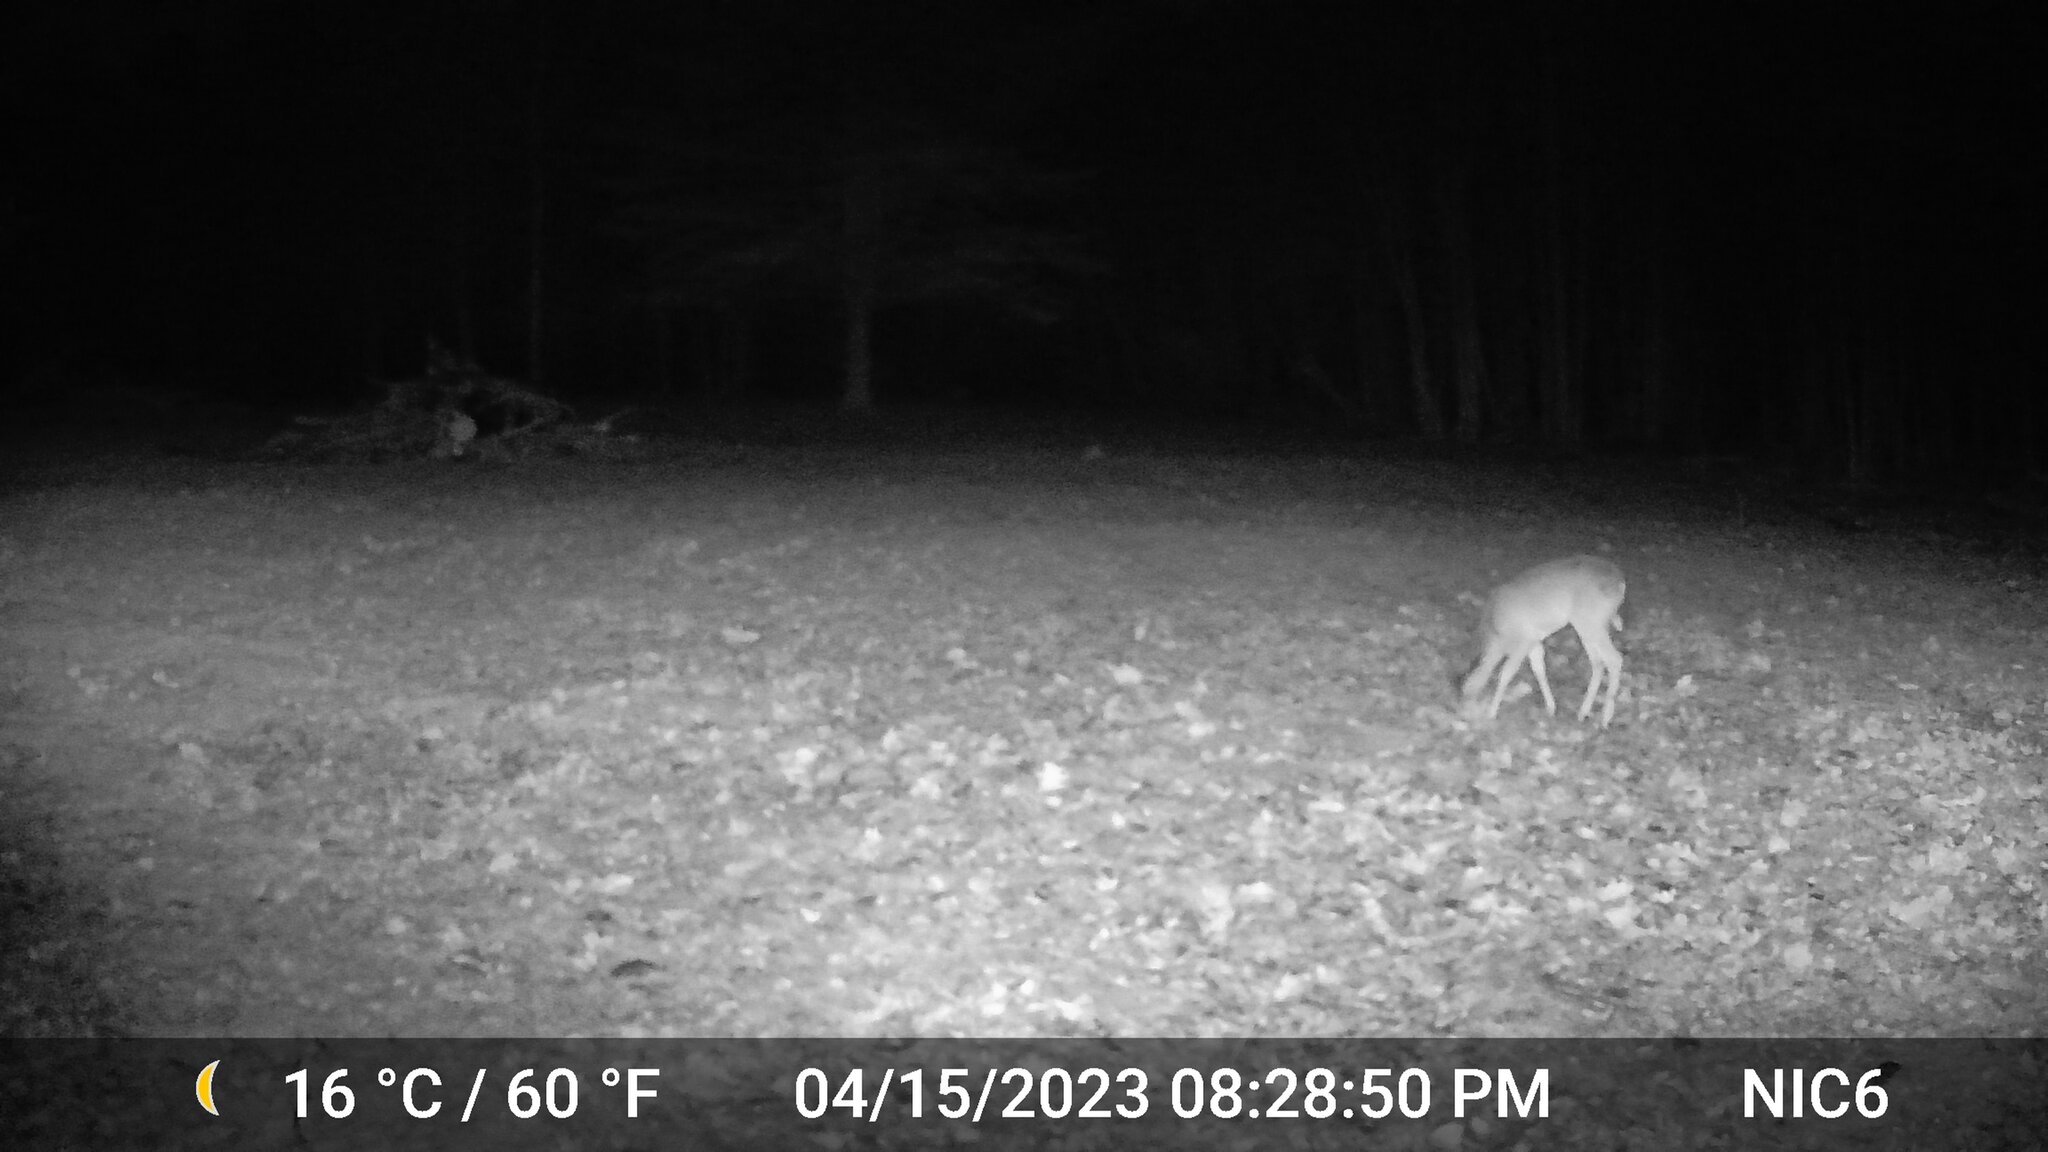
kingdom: Animalia
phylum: Chordata
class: Mammalia
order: Artiodactyla
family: Cervidae
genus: Odocoileus
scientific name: Odocoileus virginianus
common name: White-tailed deer
